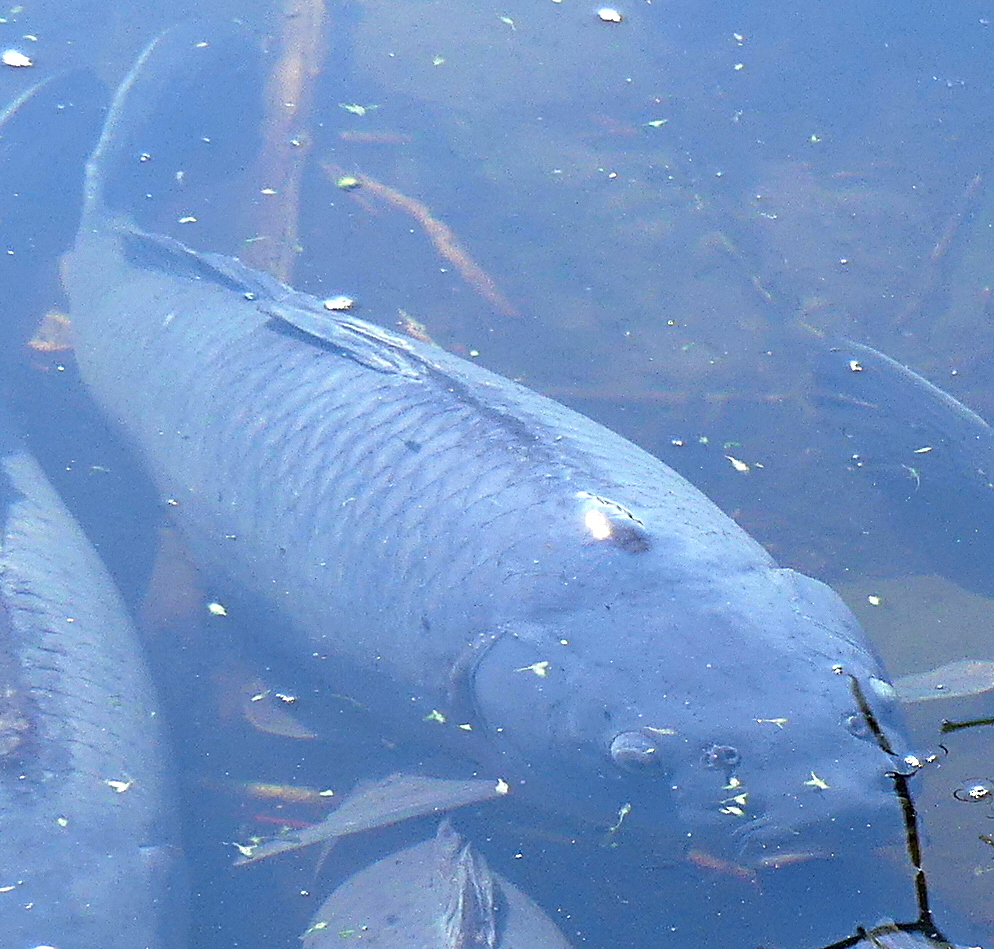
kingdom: Animalia
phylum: Chordata
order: Cypriniformes
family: Cyprinidae
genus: Cyprinus
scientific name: Cyprinus carpio
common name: Common carp
